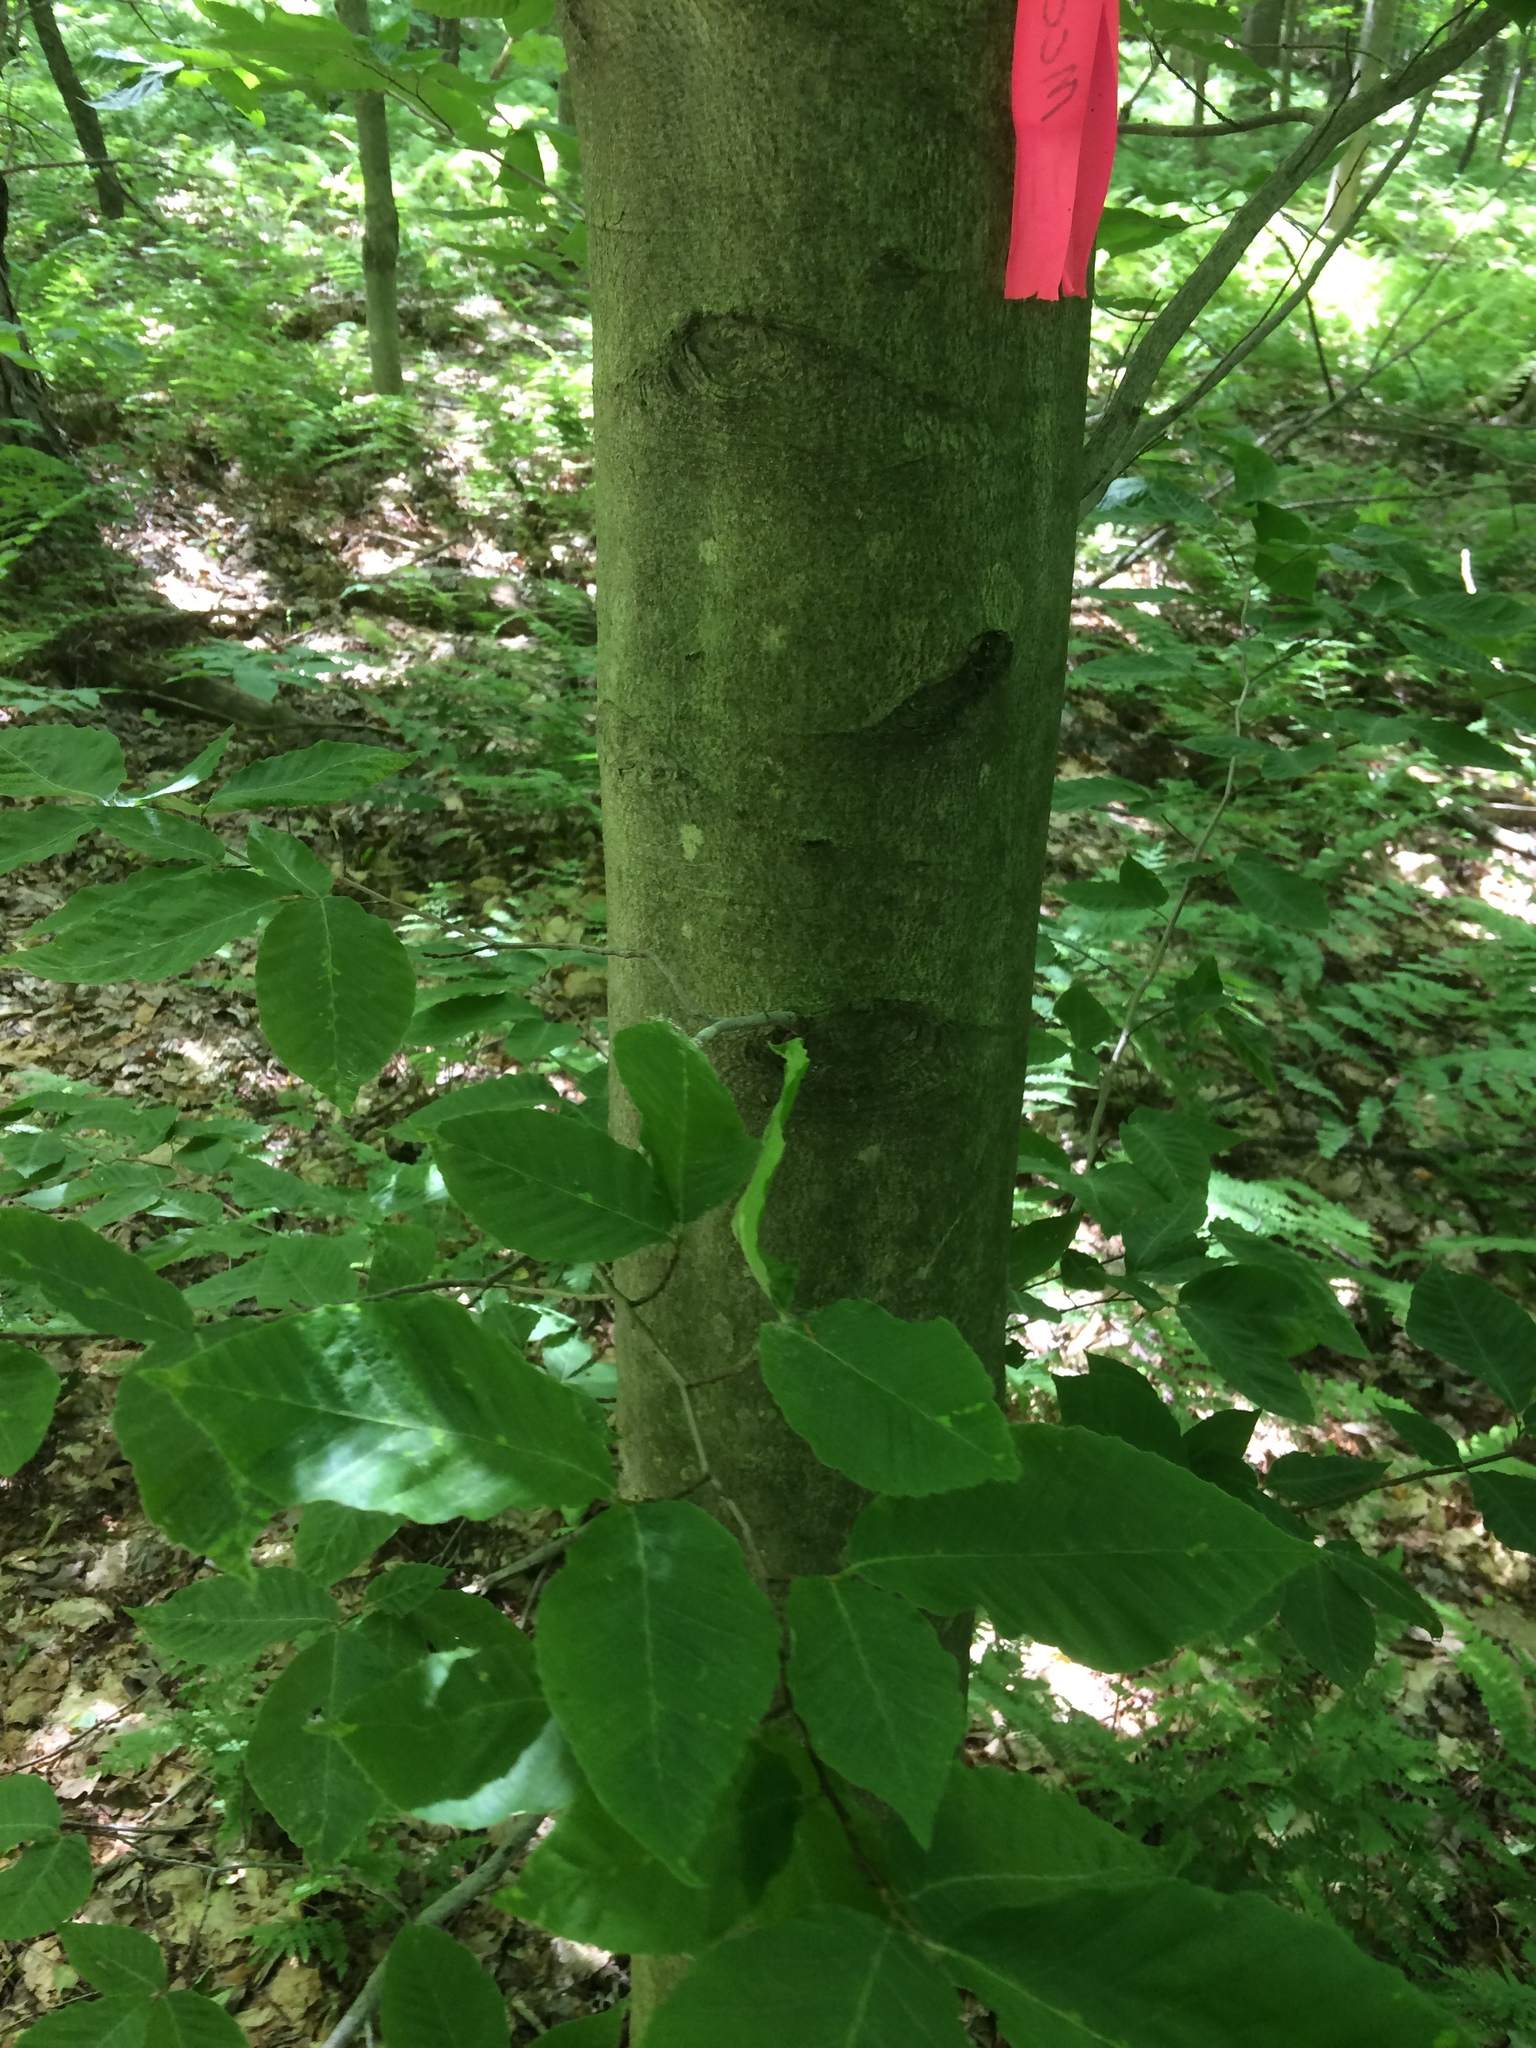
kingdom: Plantae
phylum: Tracheophyta
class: Magnoliopsida
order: Fagales
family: Fagaceae
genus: Fagus
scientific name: Fagus grandifolia
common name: American beech
